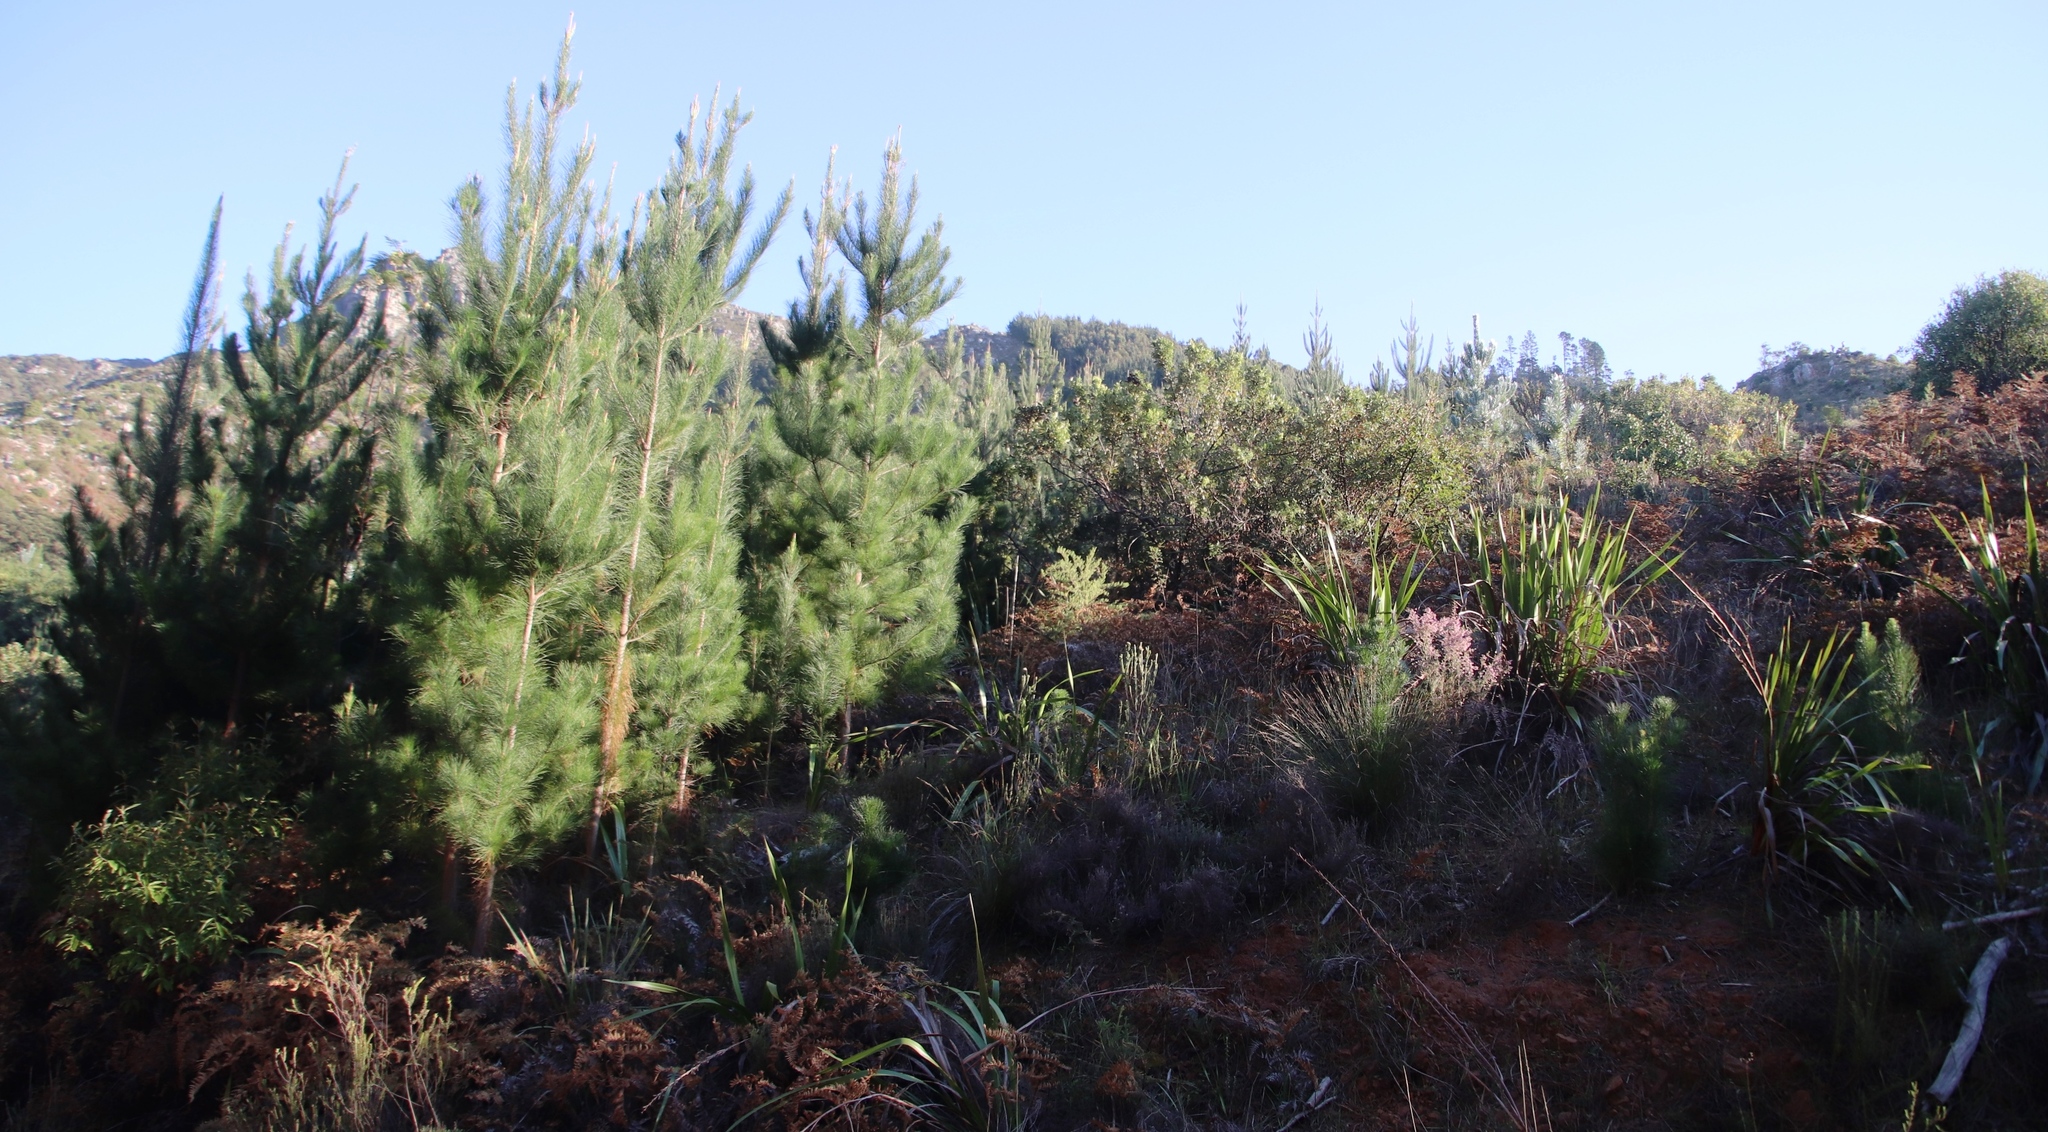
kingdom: Plantae
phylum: Tracheophyta
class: Pinopsida
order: Pinales
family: Pinaceae
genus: Pinus
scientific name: Pinus radiata
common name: Monterey pine
